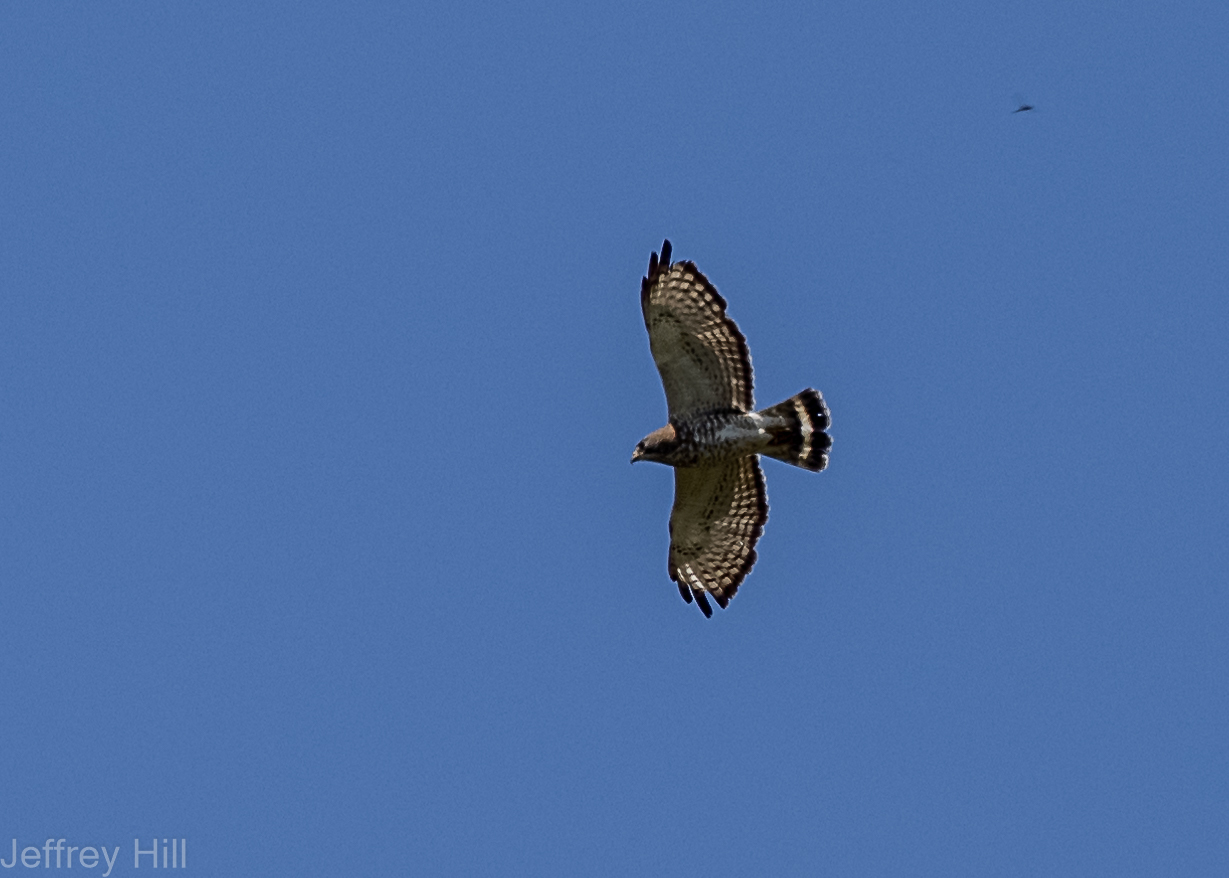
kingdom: Animalia
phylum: Chordata
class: Aves
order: Accipitriformes
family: Accipitridae
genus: Buteo
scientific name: Buteo platypterus
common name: Broad-winged hawk
